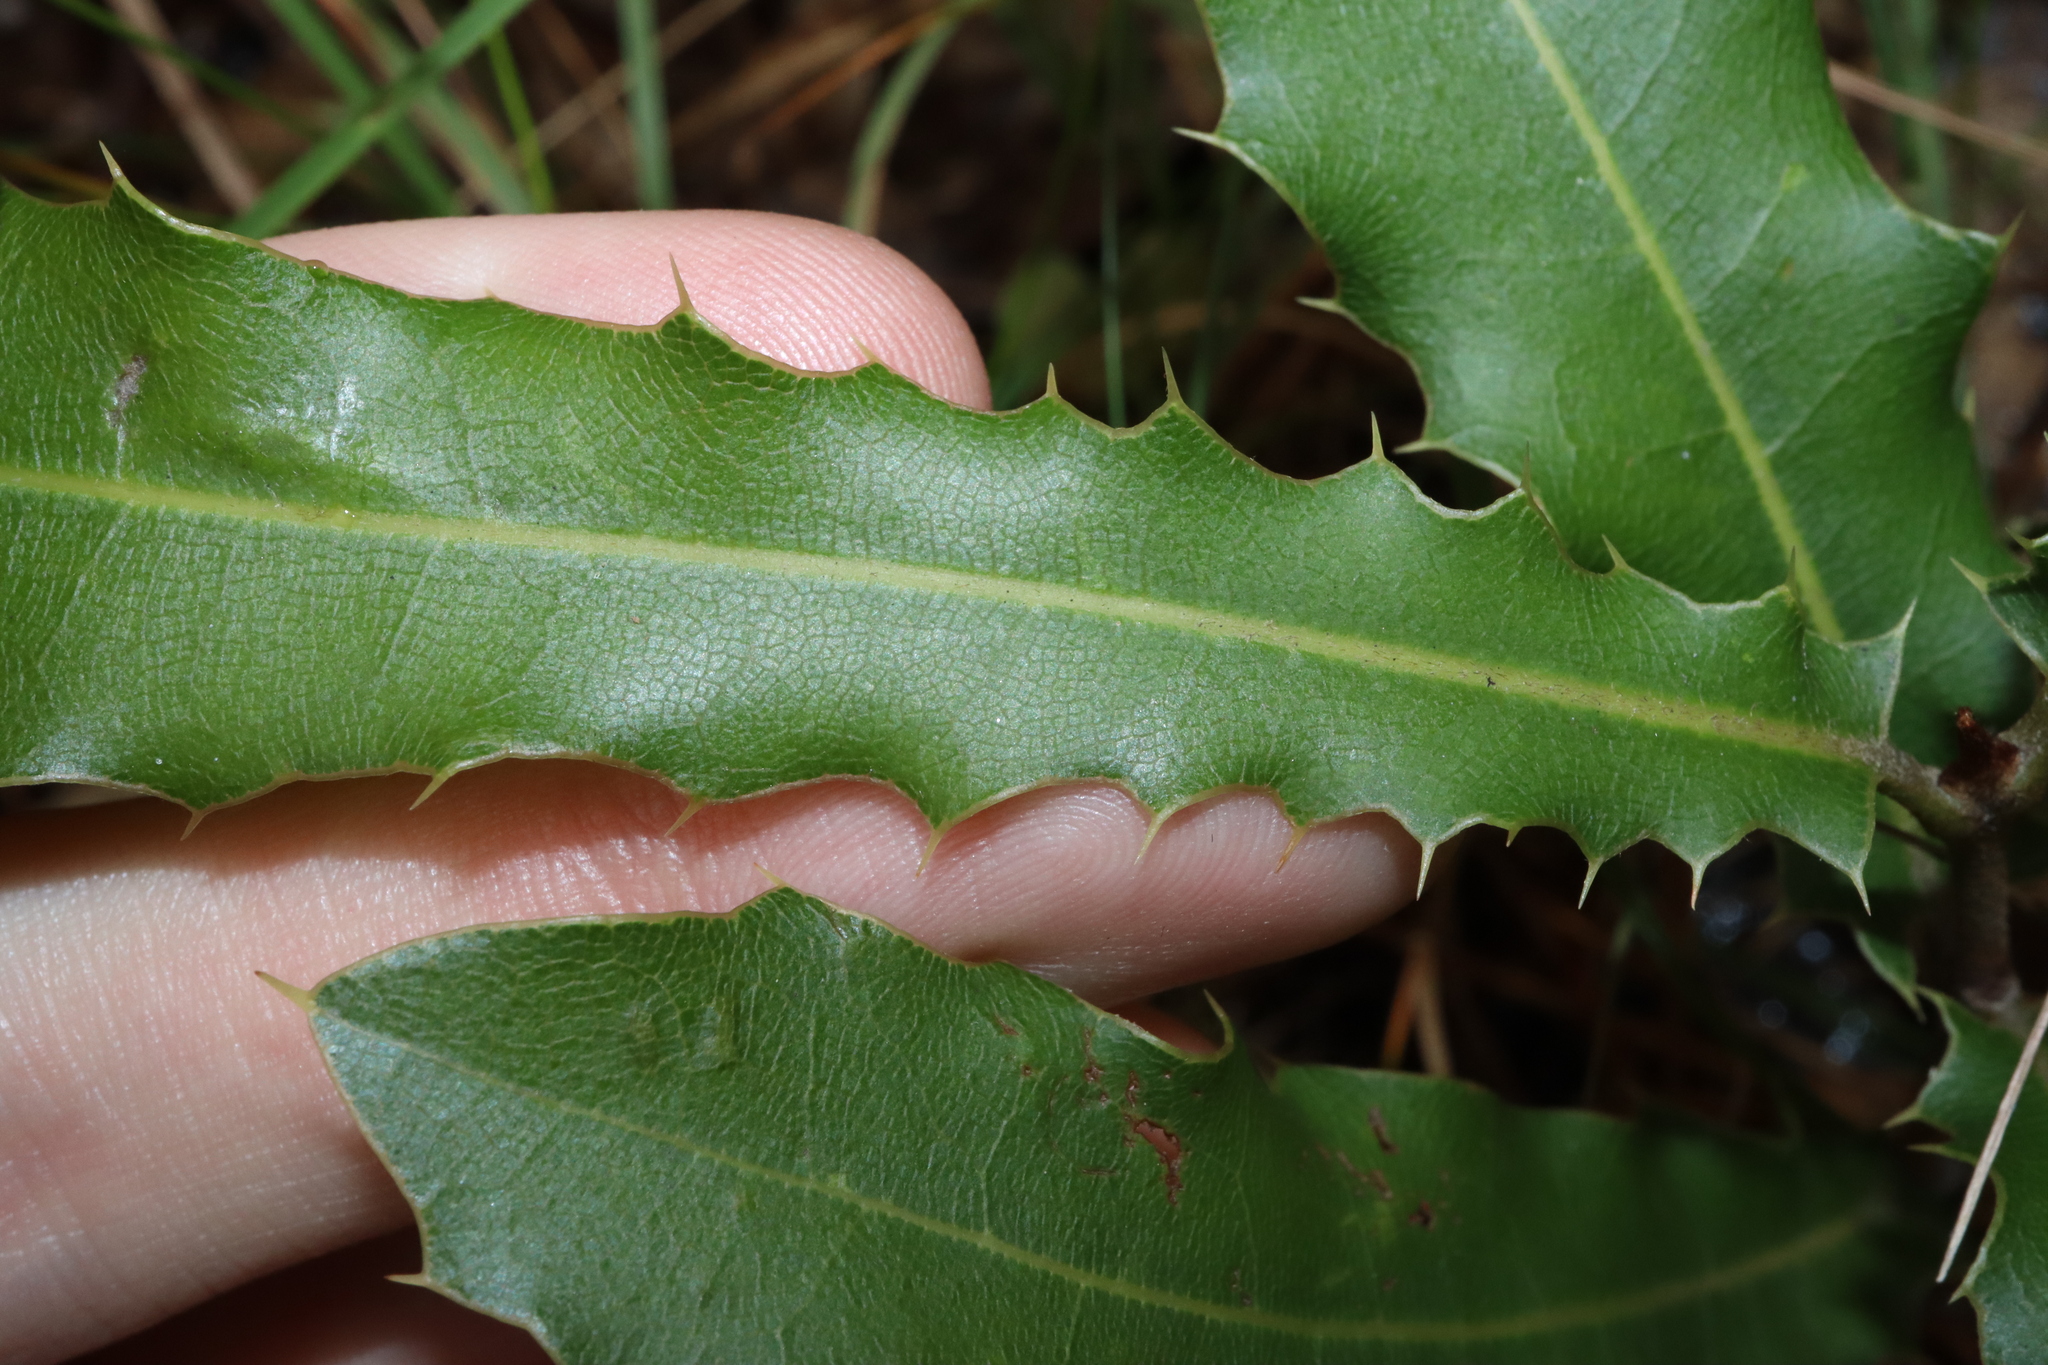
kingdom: Plantae
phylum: Tracheophyta
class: Magnoliopsida
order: Proteales
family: Proteaceae
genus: Macadamia
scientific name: Macadamia integrifolia
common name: Macadamia
